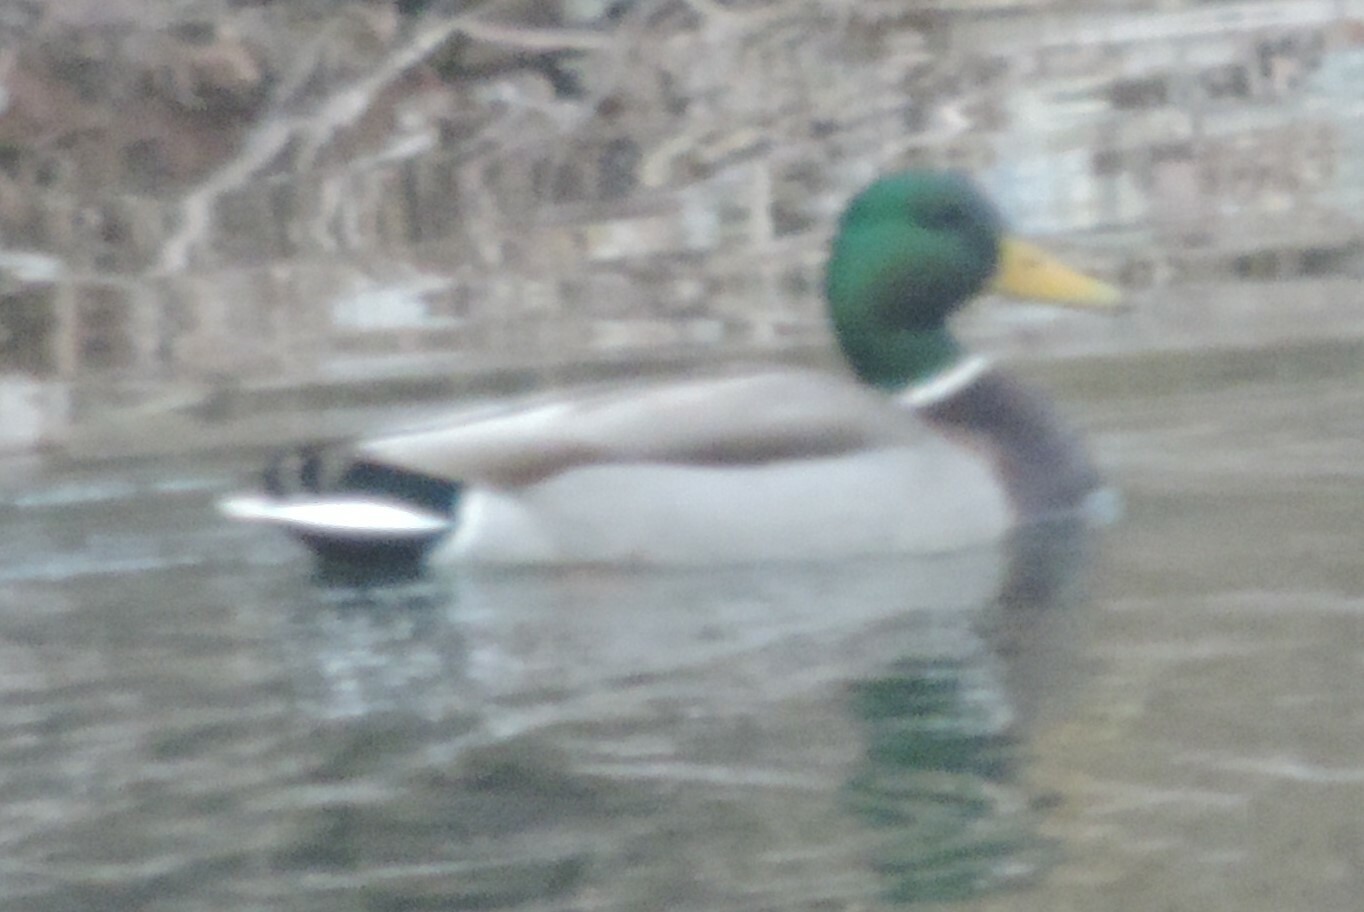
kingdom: Animalia
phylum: Chordata
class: Aves
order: Anseriformes
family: Anatidae
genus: Anas
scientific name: Anas platyrhynchos
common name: Mallard
